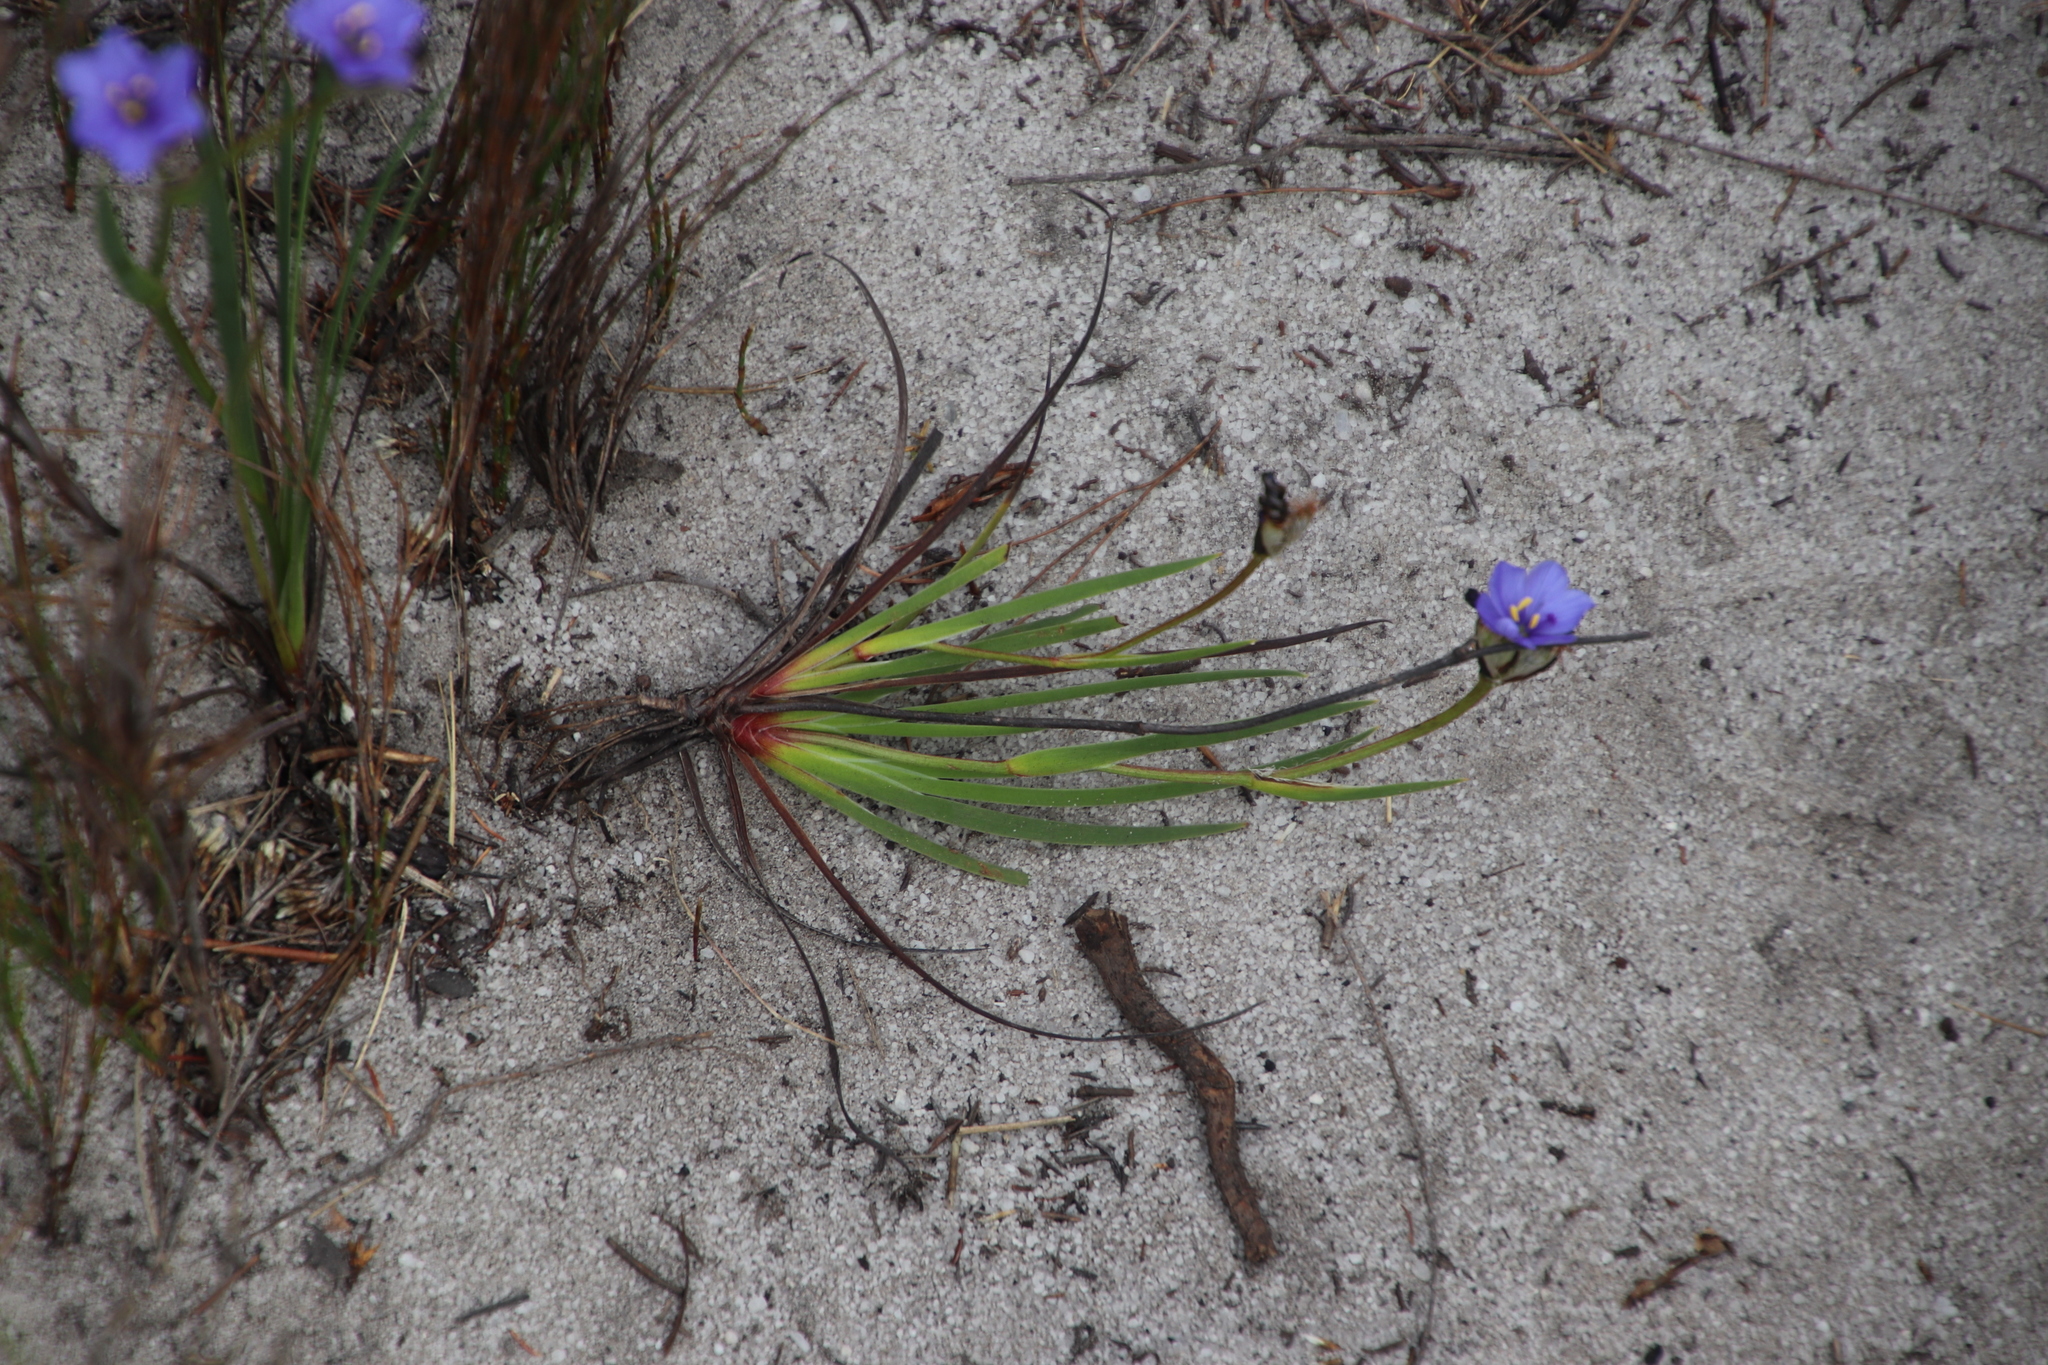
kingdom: Plantae
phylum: Tracheophyta
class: Liliopsida
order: Asparagales
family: Iridaceae
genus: Aristea
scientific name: Aristea africana
